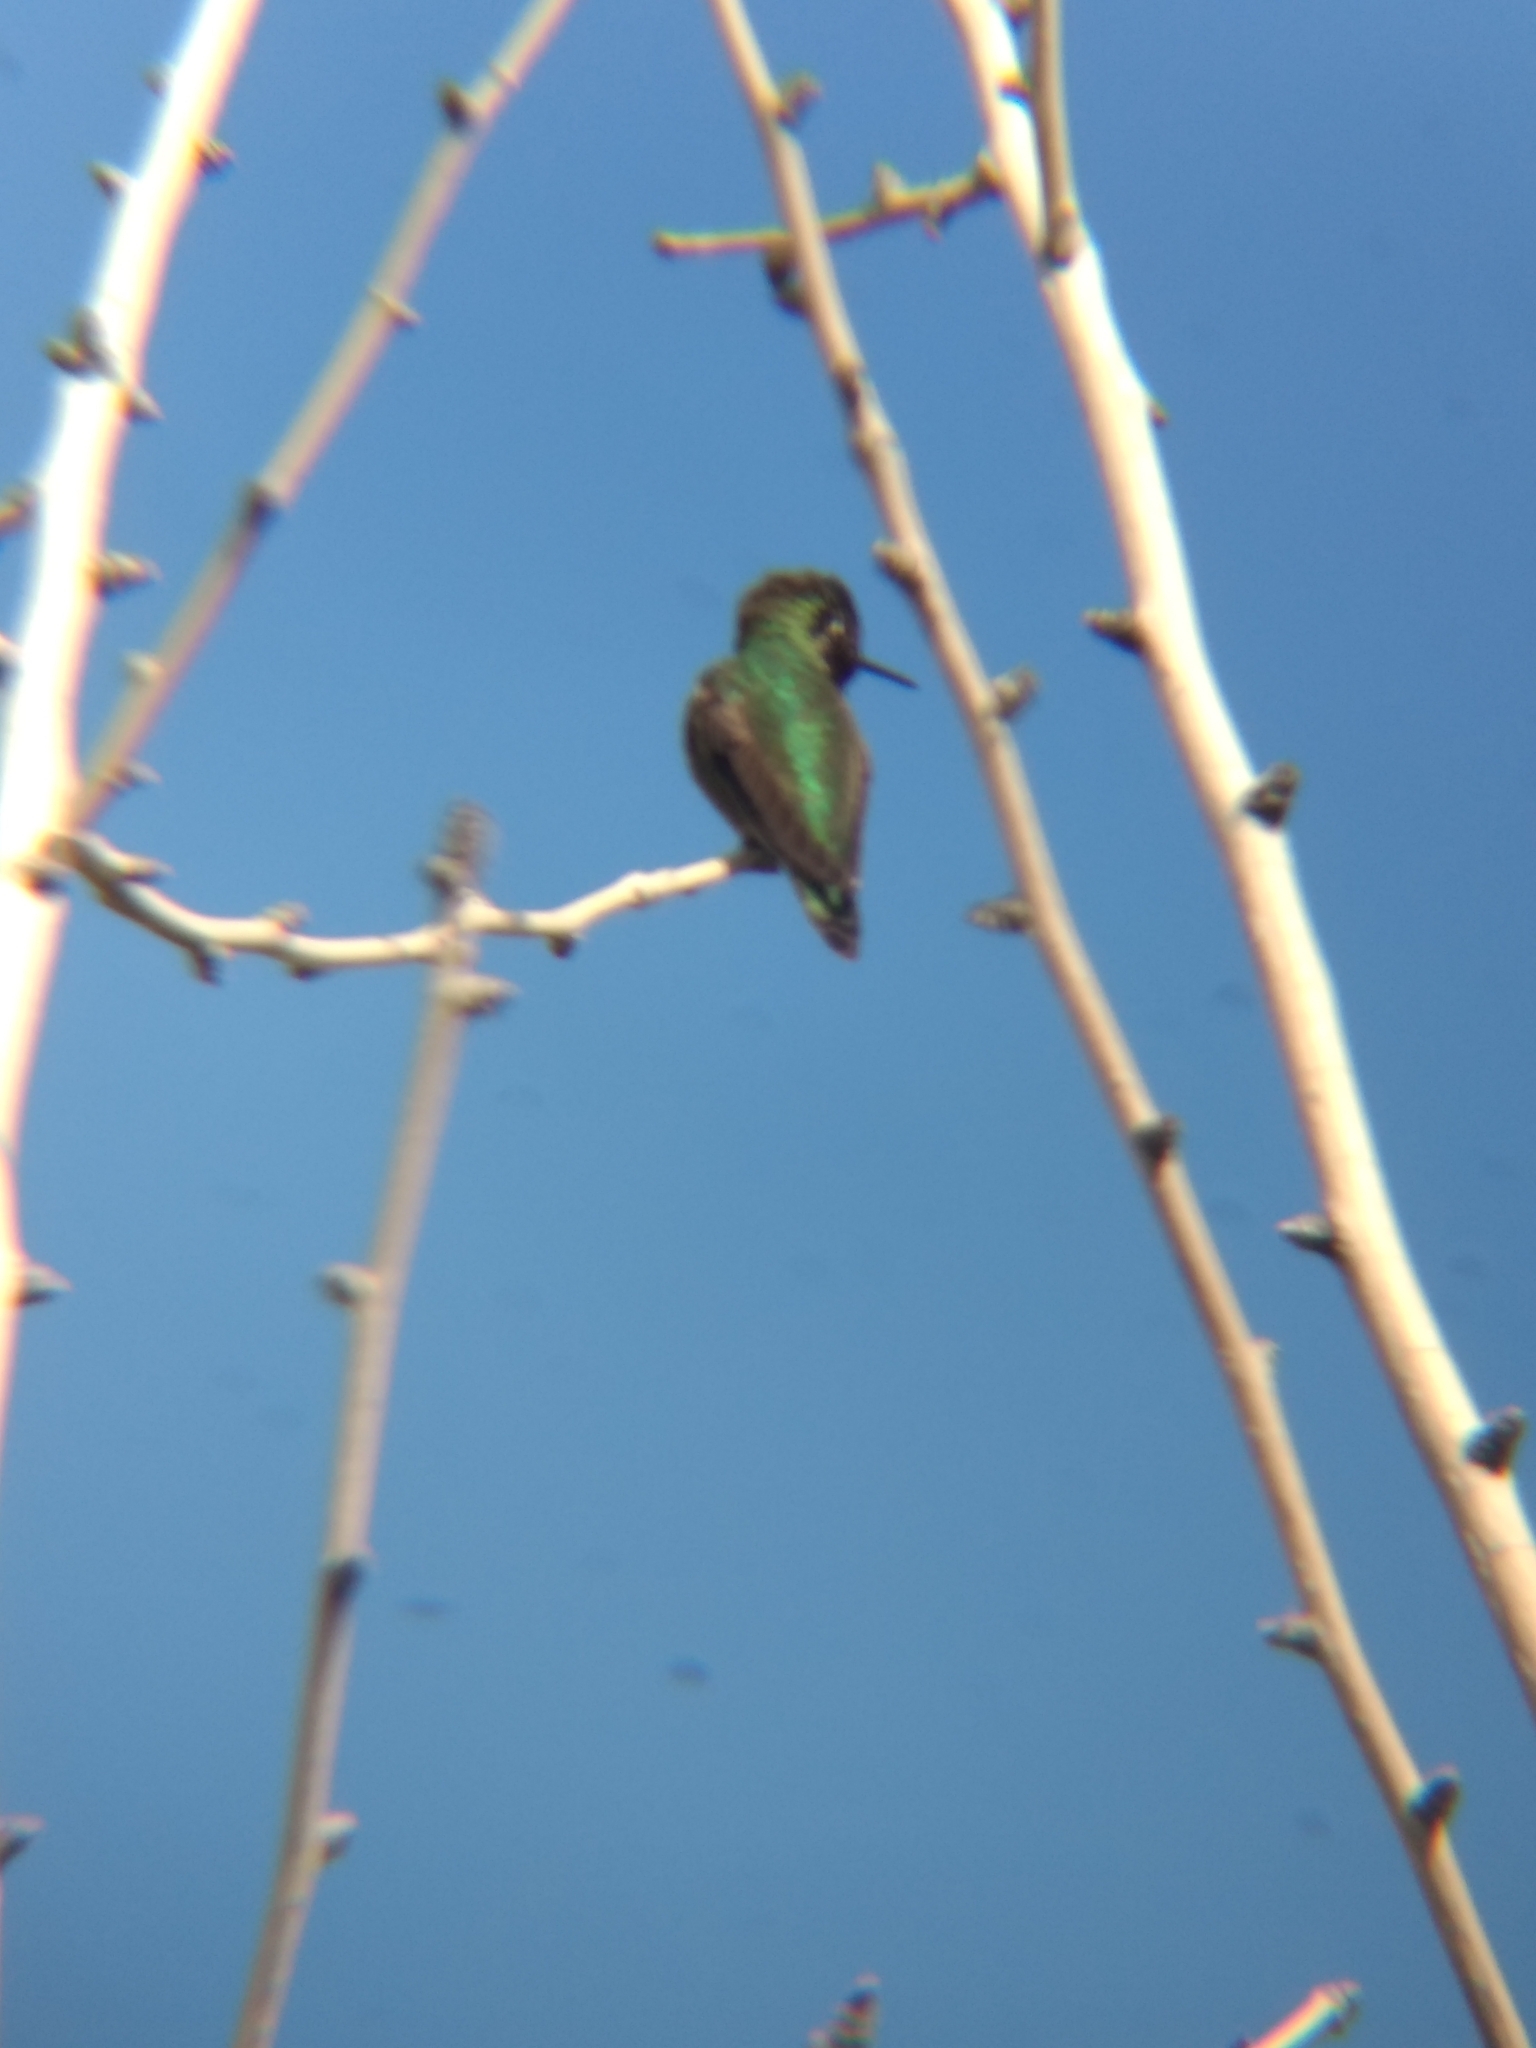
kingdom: Animalia
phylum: Chordata
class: Aves
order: Apodiformes
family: Trochilidae
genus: Calypte
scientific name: Calypte anna
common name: Anna's hummingbird
